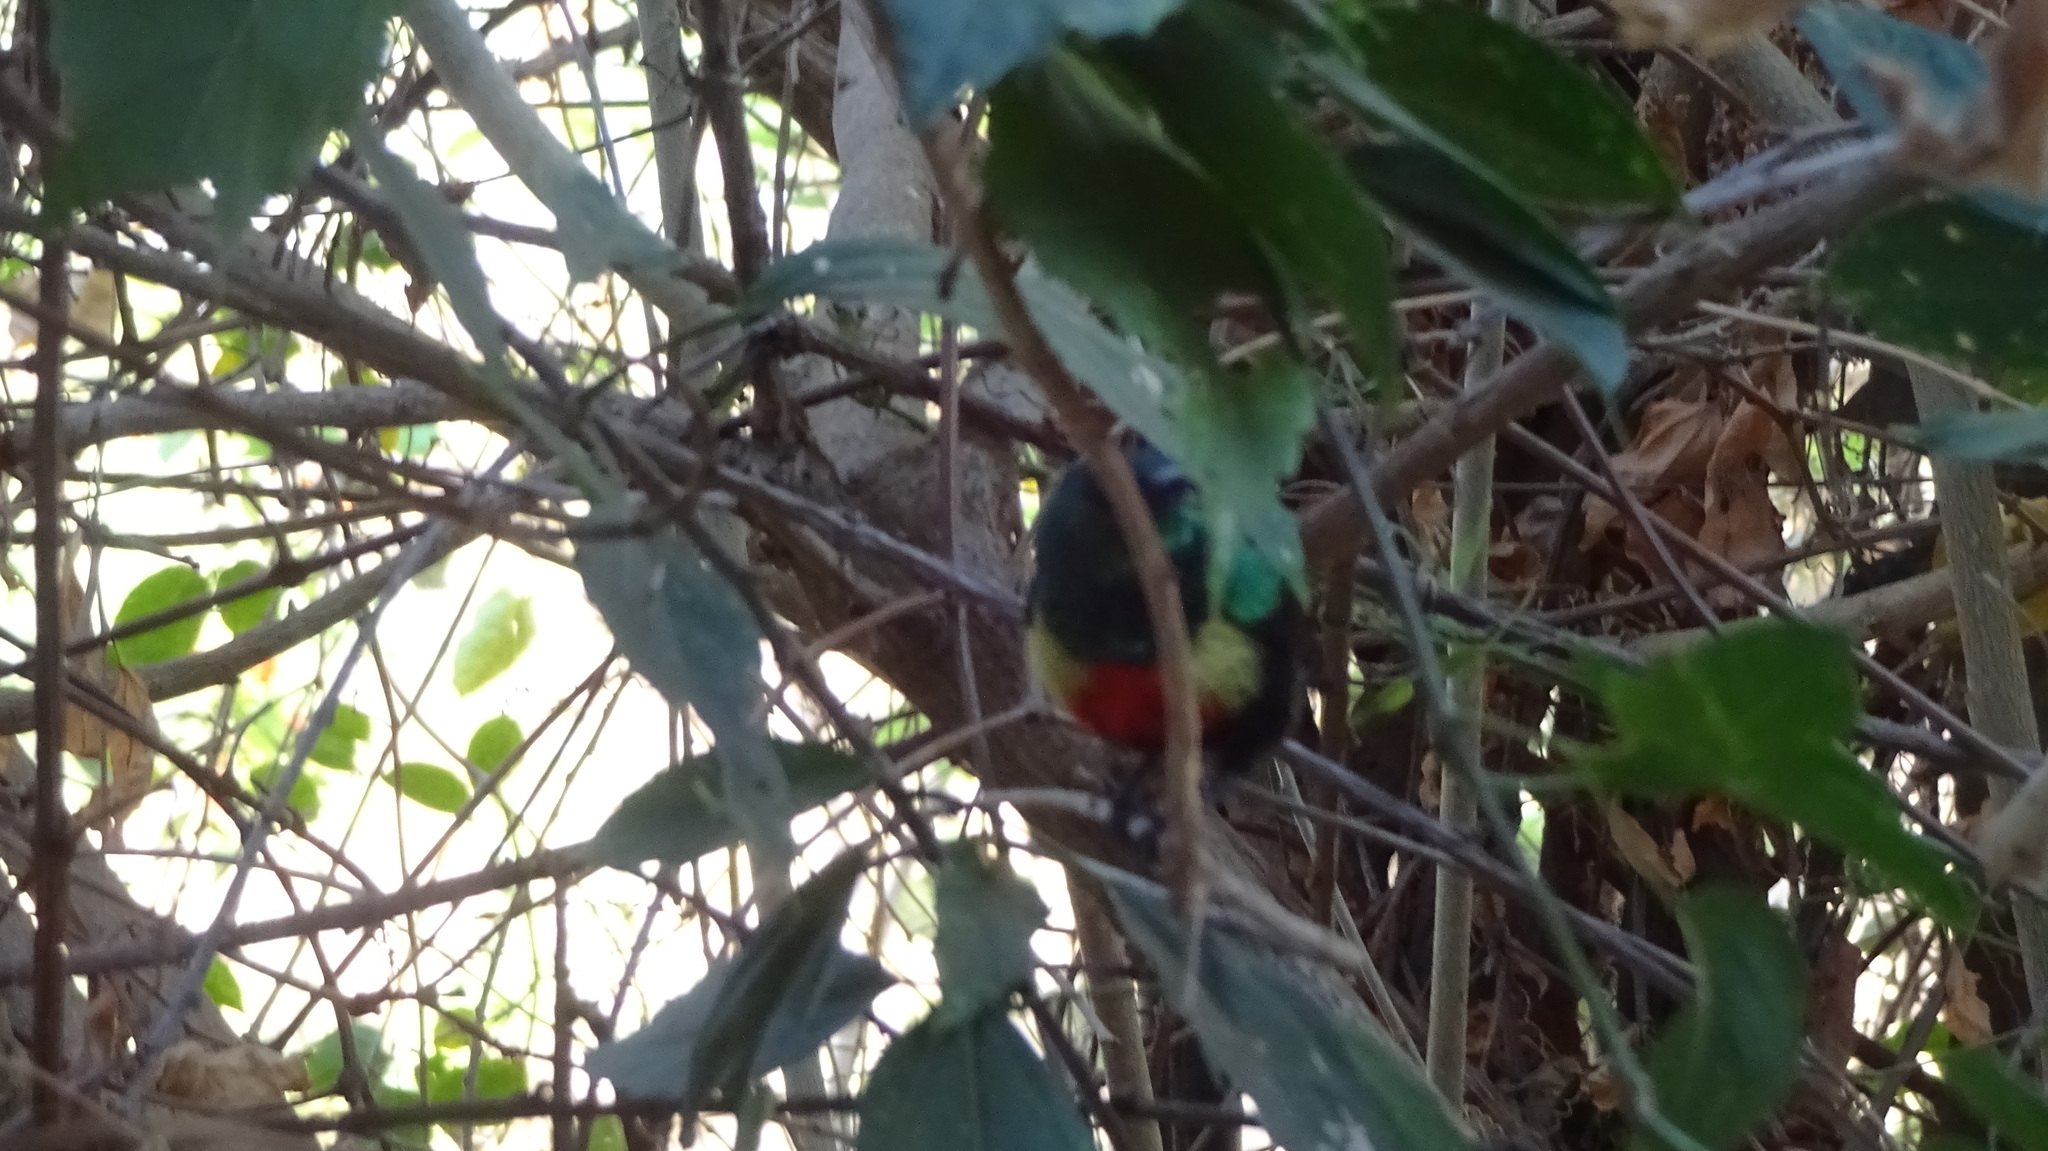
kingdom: Animalia
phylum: Chordata
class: Aves
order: Passeriformes
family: Nectariniidae
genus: Cinnyris
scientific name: Cinnyris pulchellus
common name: Beautiful sunbird
